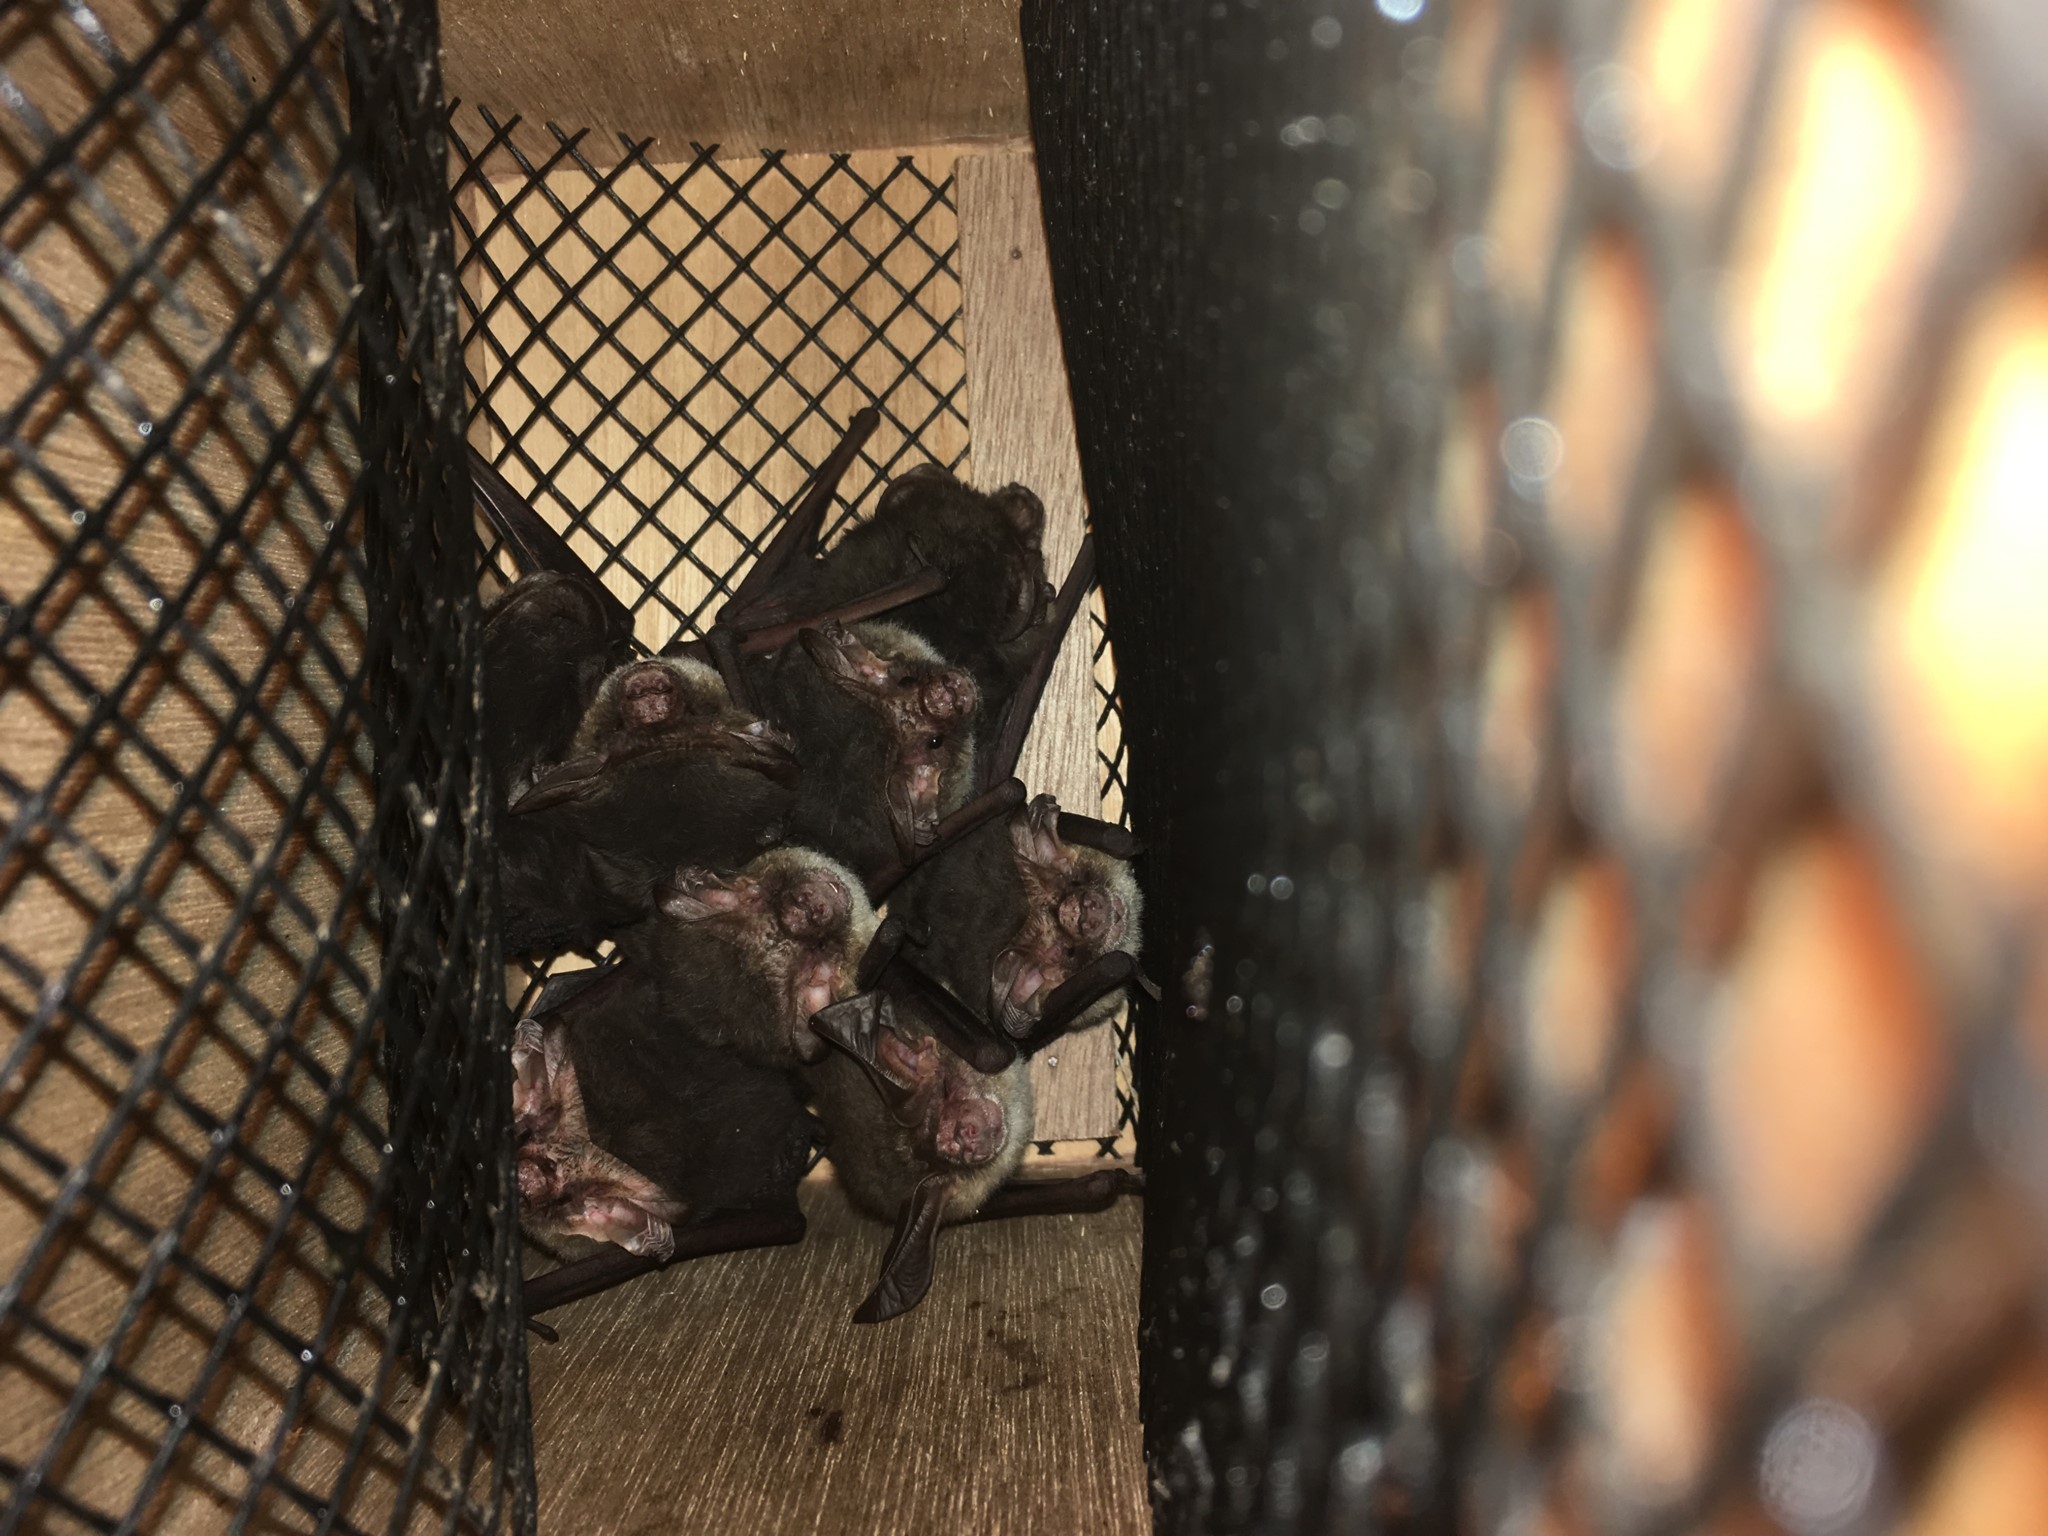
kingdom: Animalia
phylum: Chordata
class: Mammalia
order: Chiroptera
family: Vespertilionidae
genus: Nyctophilus
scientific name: Nyctophilus geoffroyi
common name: Lesser long-eared bat
